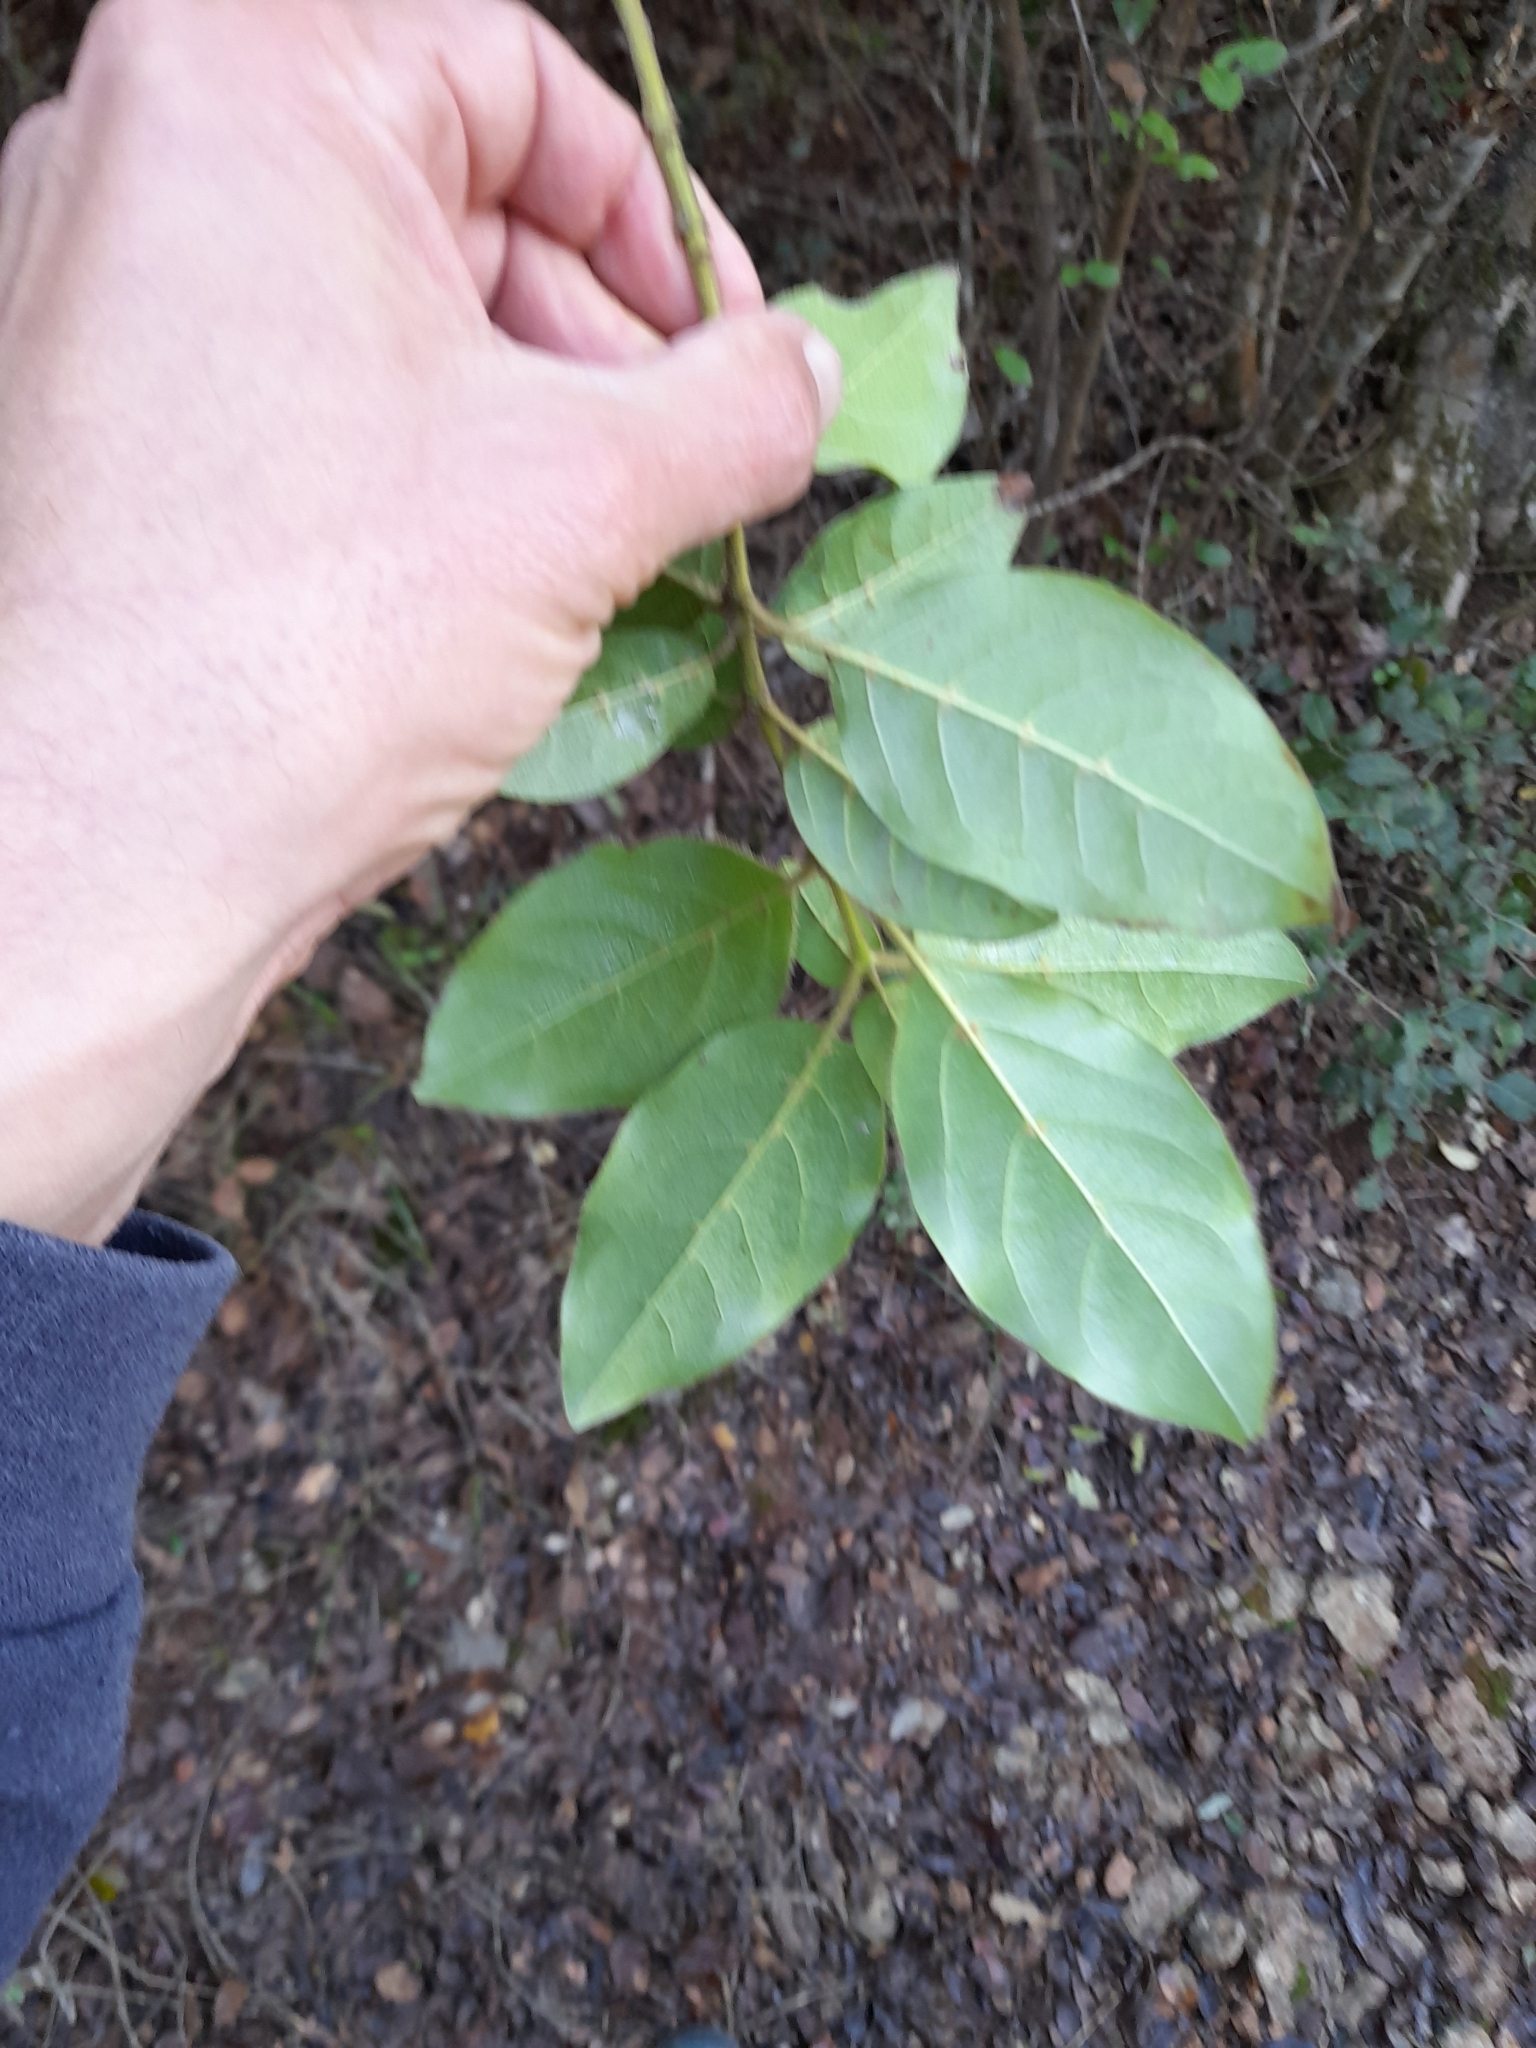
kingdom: Plantae
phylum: Tracheophyta
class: Magnoliopsida
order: Dipsacales
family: Viburnaceae
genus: Viburnum
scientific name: Viburnum tinus
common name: Laurustinus
